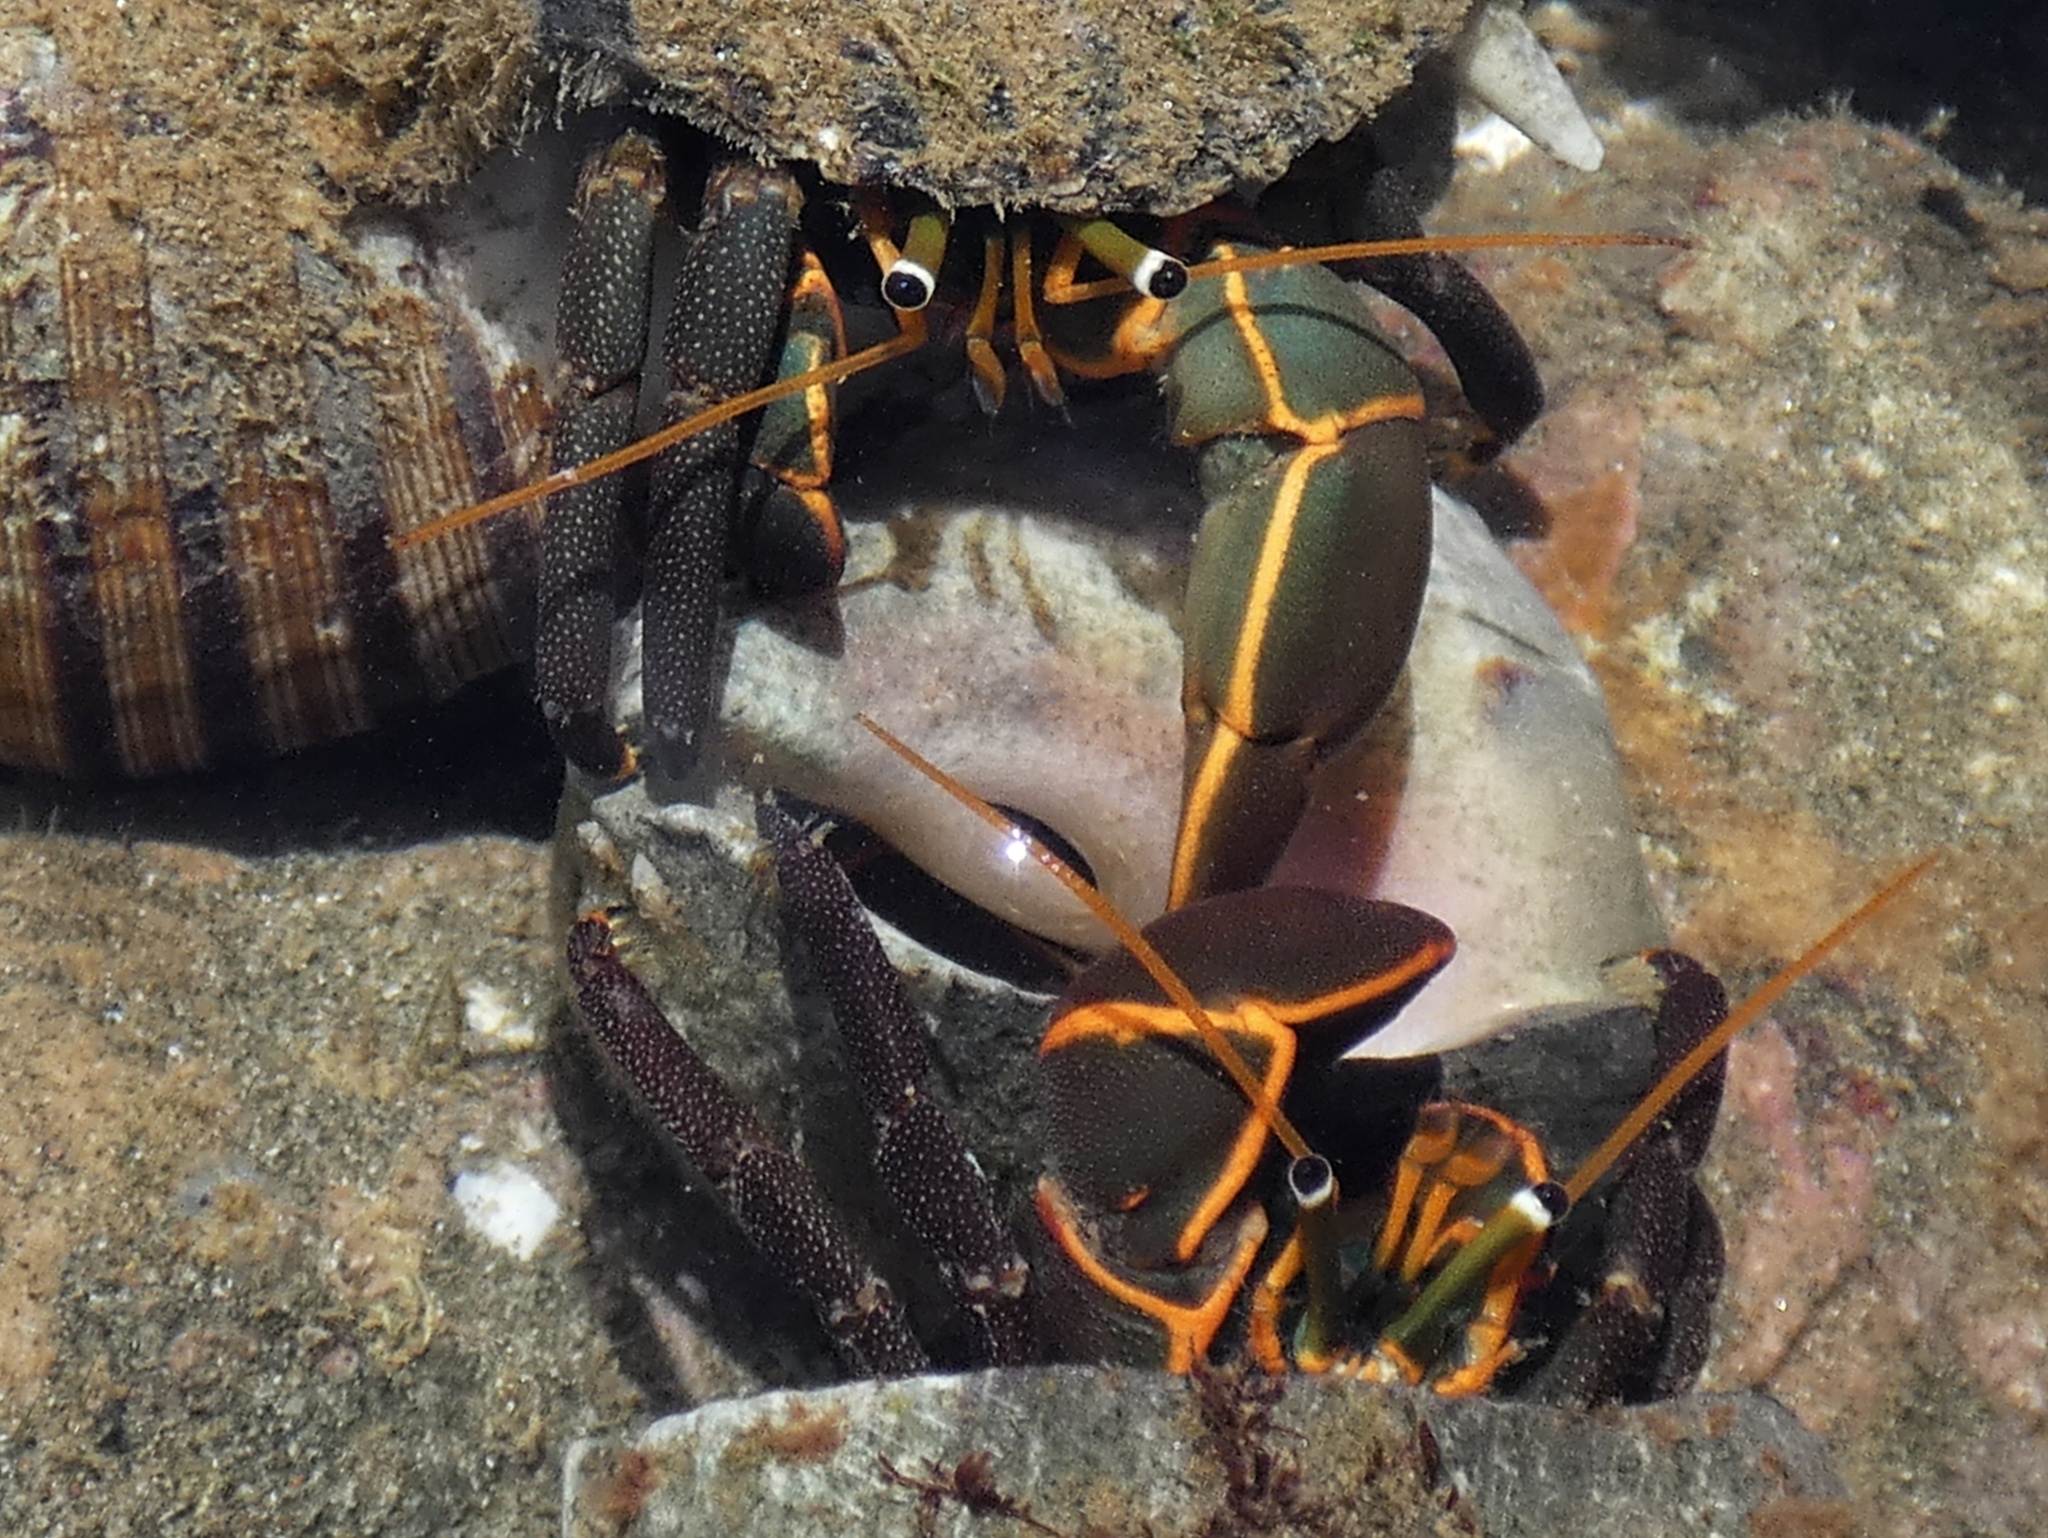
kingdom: Animalia
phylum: Arthropoda
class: Malacostraca
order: Decapoda
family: Diogenidae
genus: Calcinus
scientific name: Calcinus obscurus
